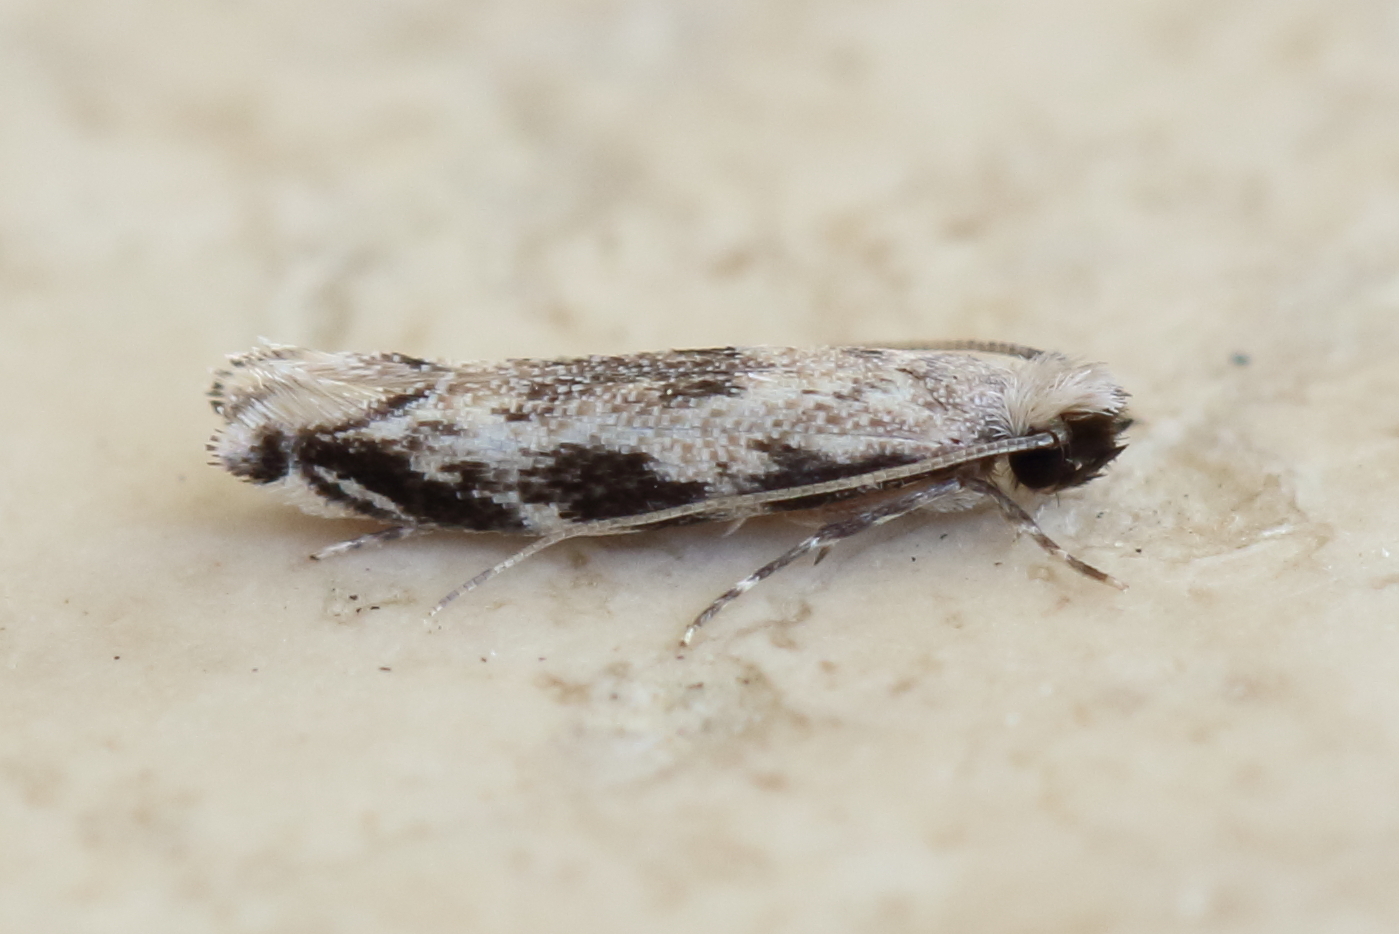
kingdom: Animalia
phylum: Arthropoda
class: Insecta
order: Lepidoptera
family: Tineidae
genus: Erechthias
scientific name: Erechthias zebrina
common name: Fungus moth
